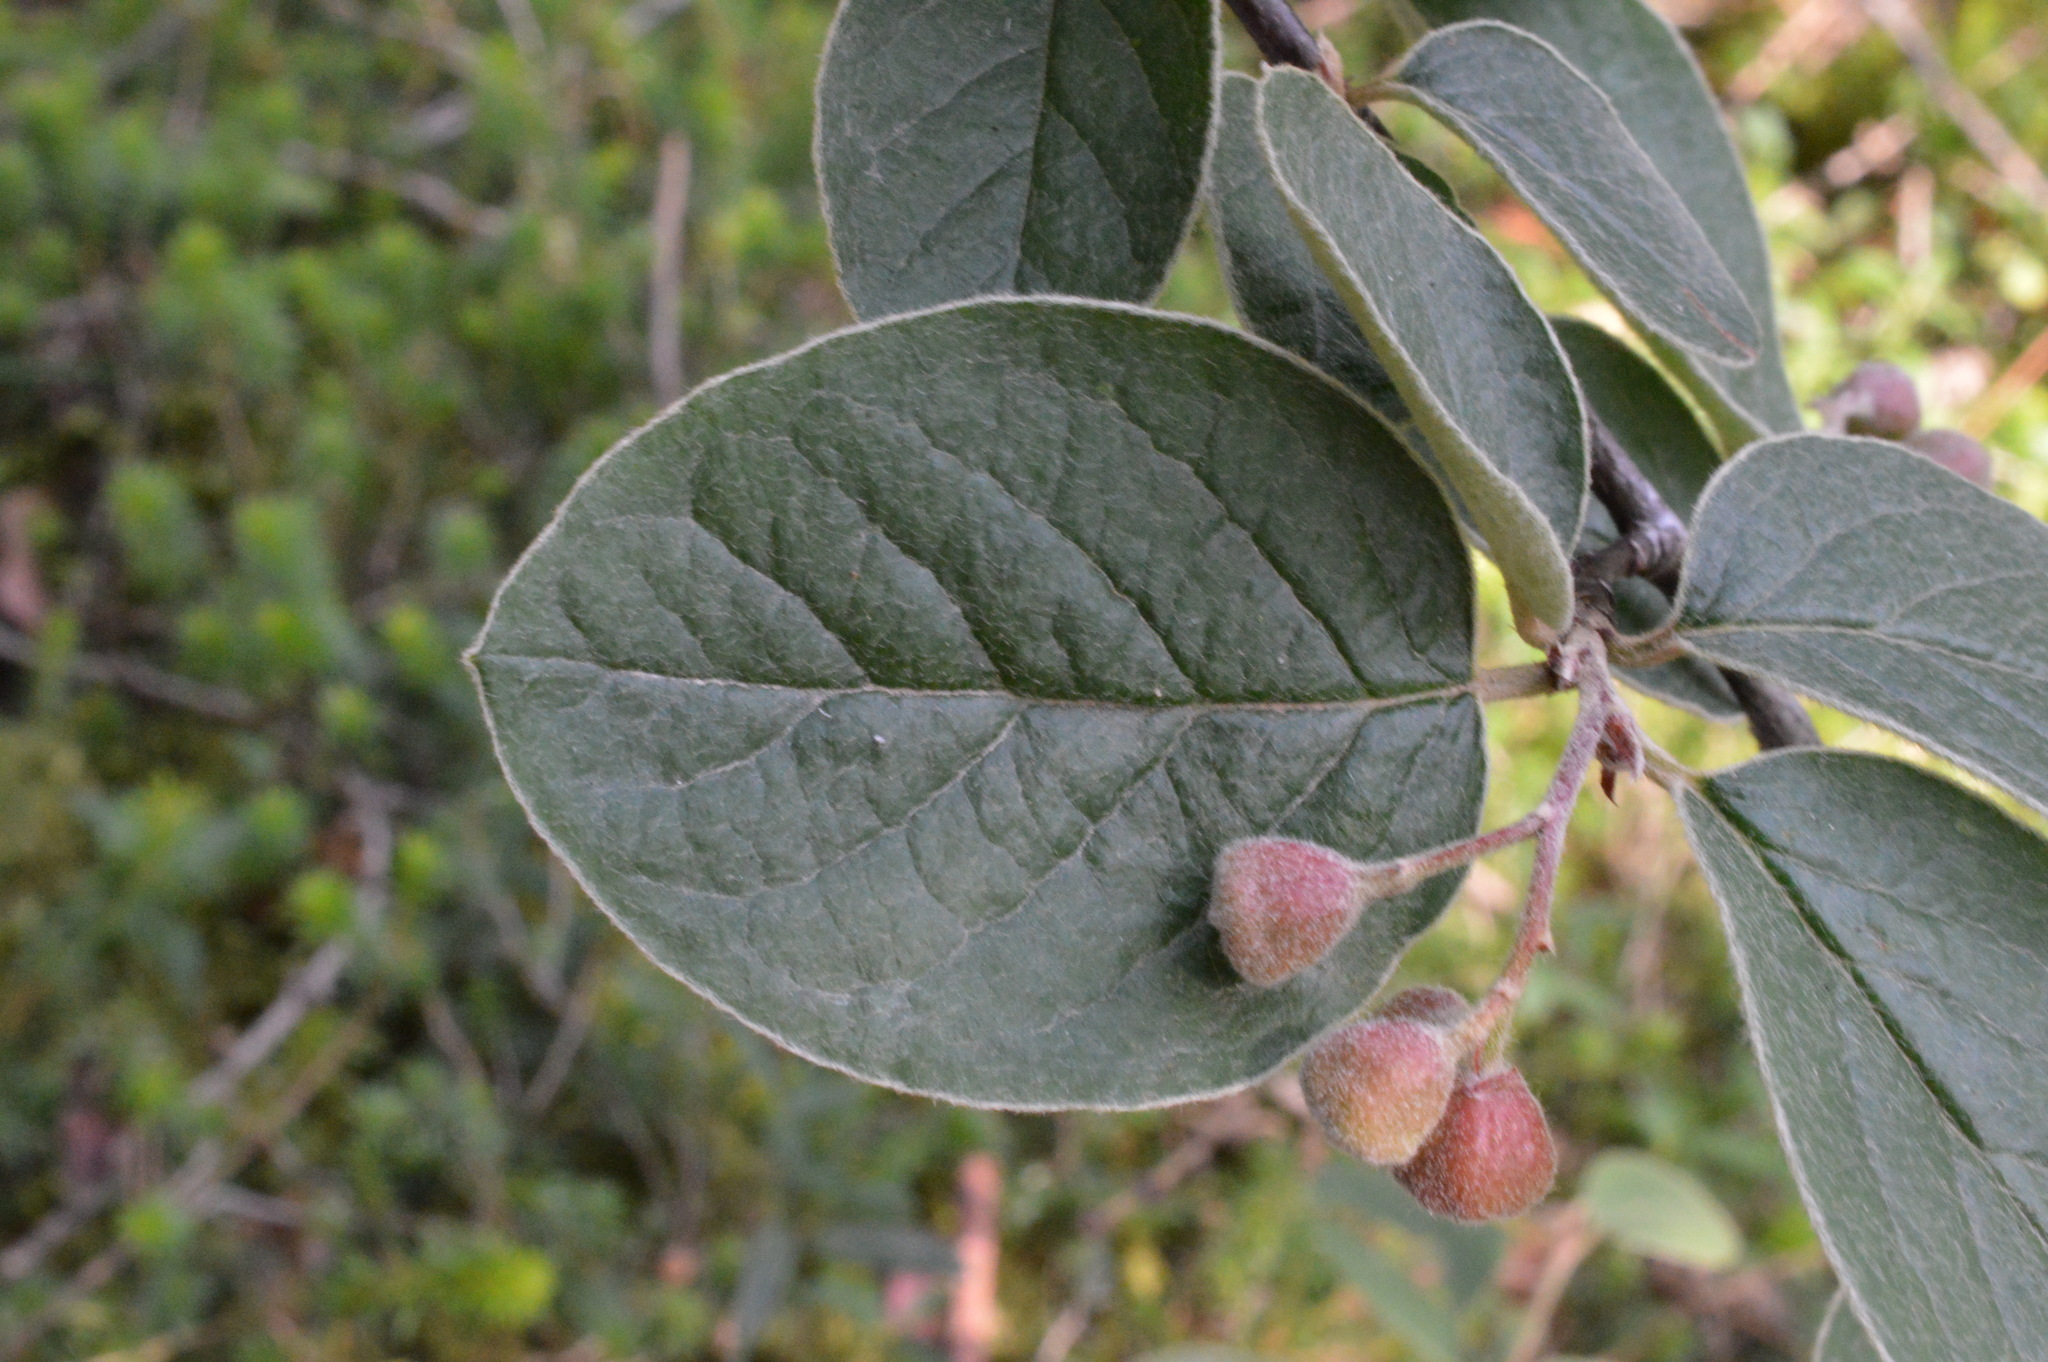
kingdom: Plantae
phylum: Tracheophyta
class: Magnoliopsida
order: Rosales
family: Rosaceae
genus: Cotoneaster
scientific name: Cotoneaster tomentosus
